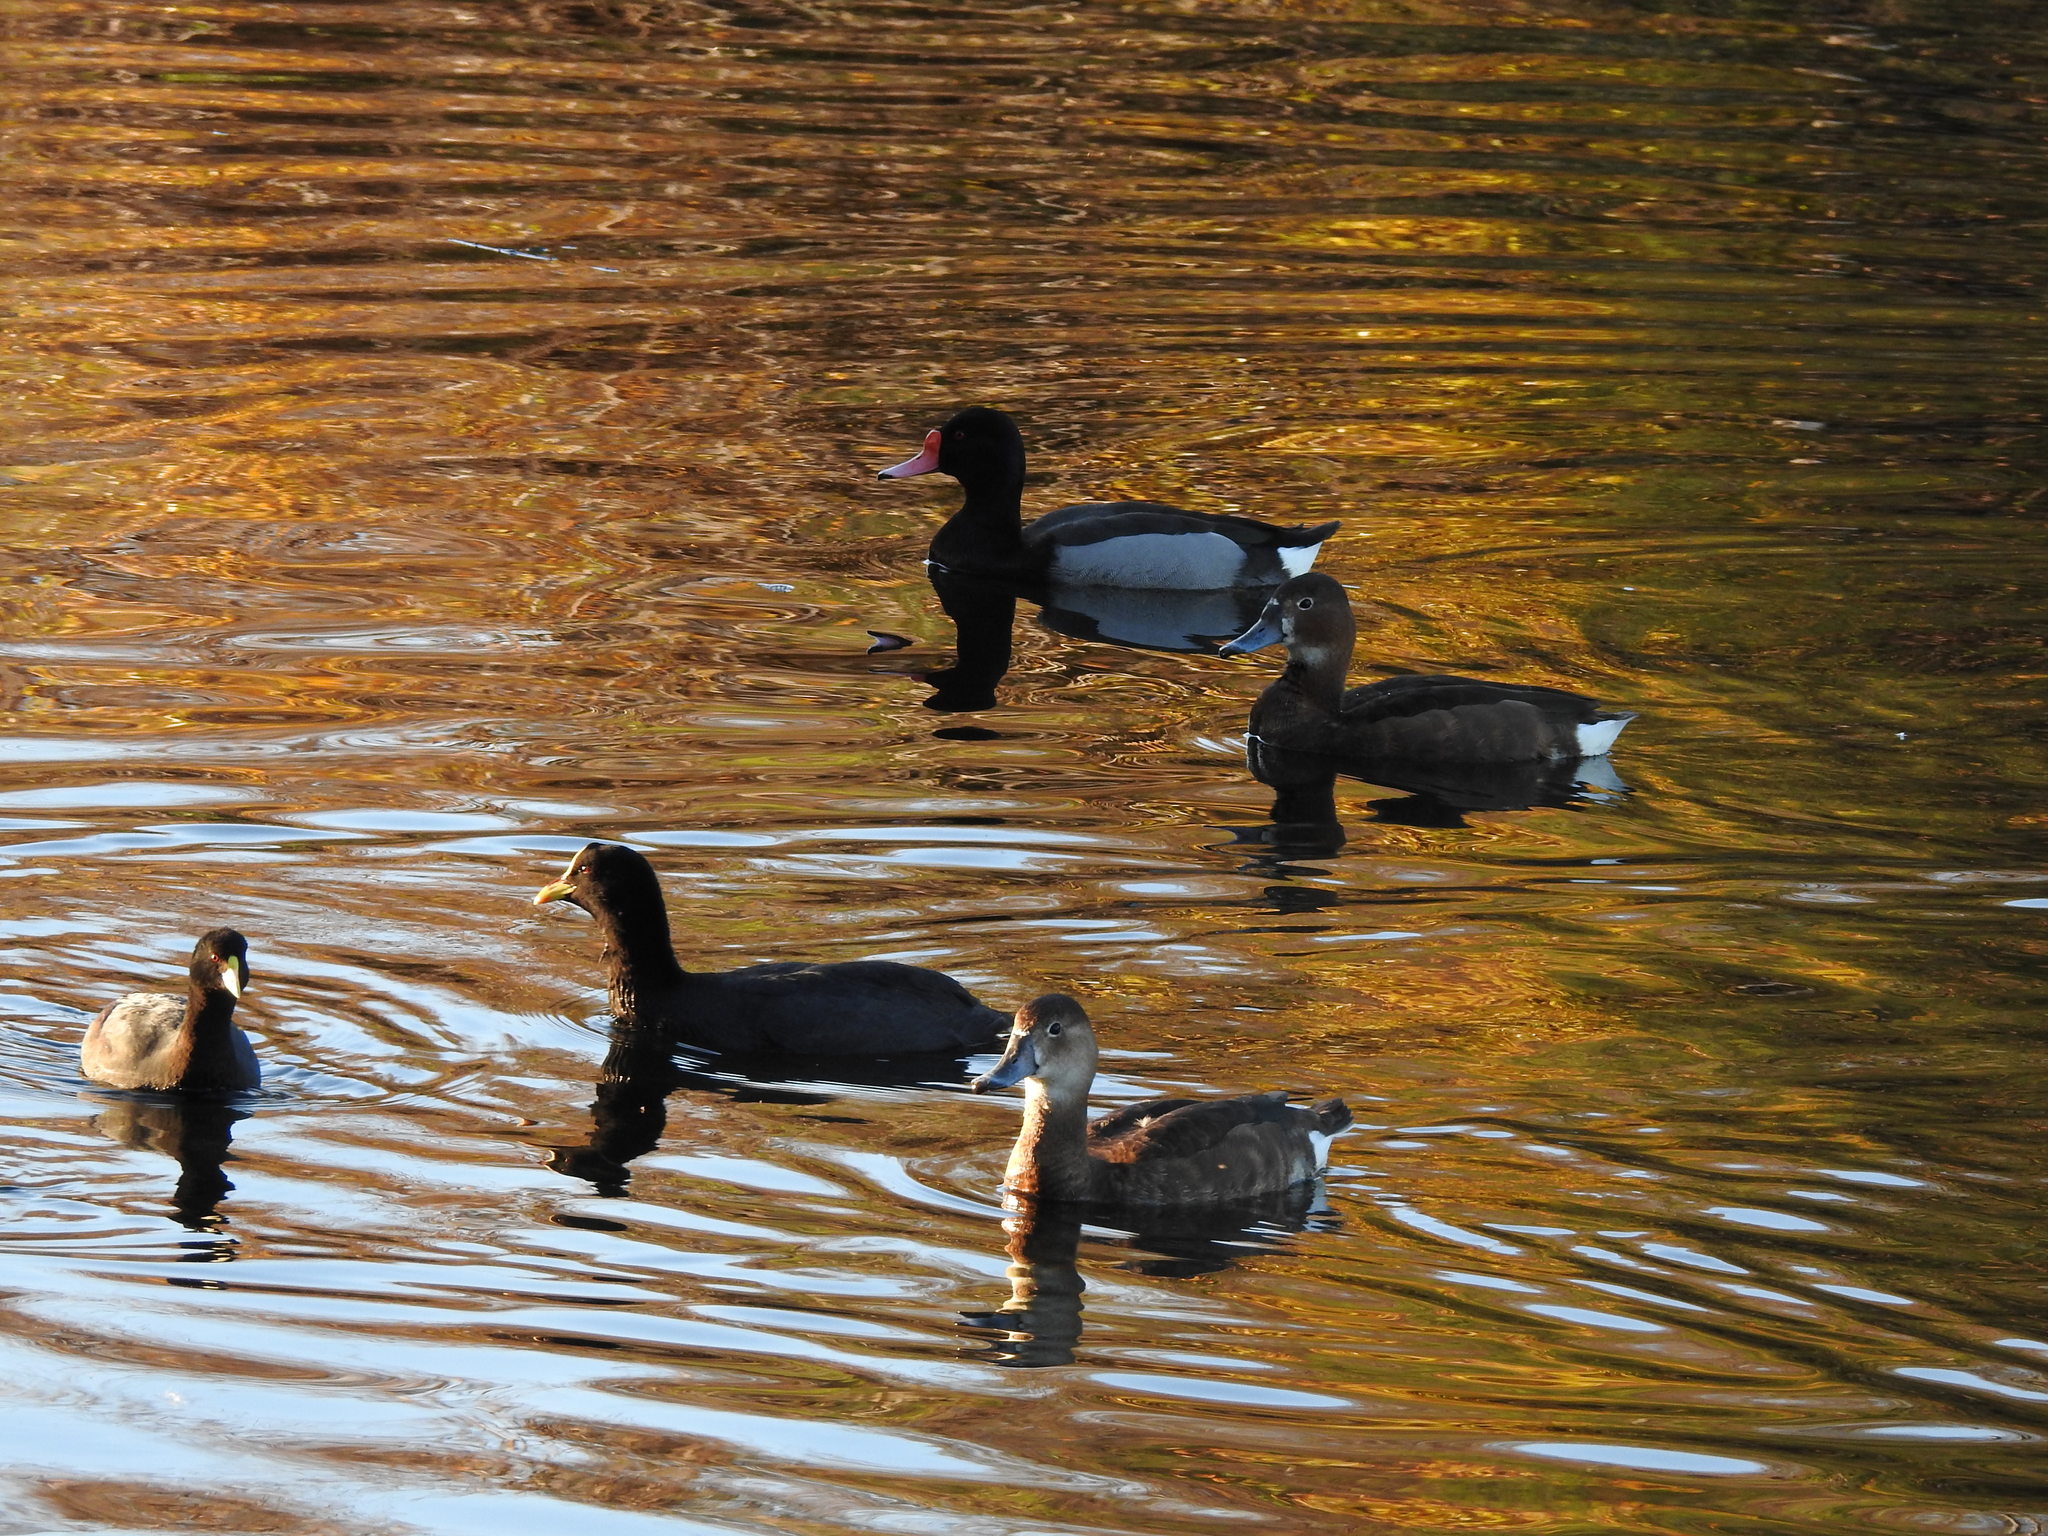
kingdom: Animalia
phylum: Chordata
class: Aves
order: Anseriformes
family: Anatidae
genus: Netta
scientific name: Netta peposaca
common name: Rosy-billed pochard
